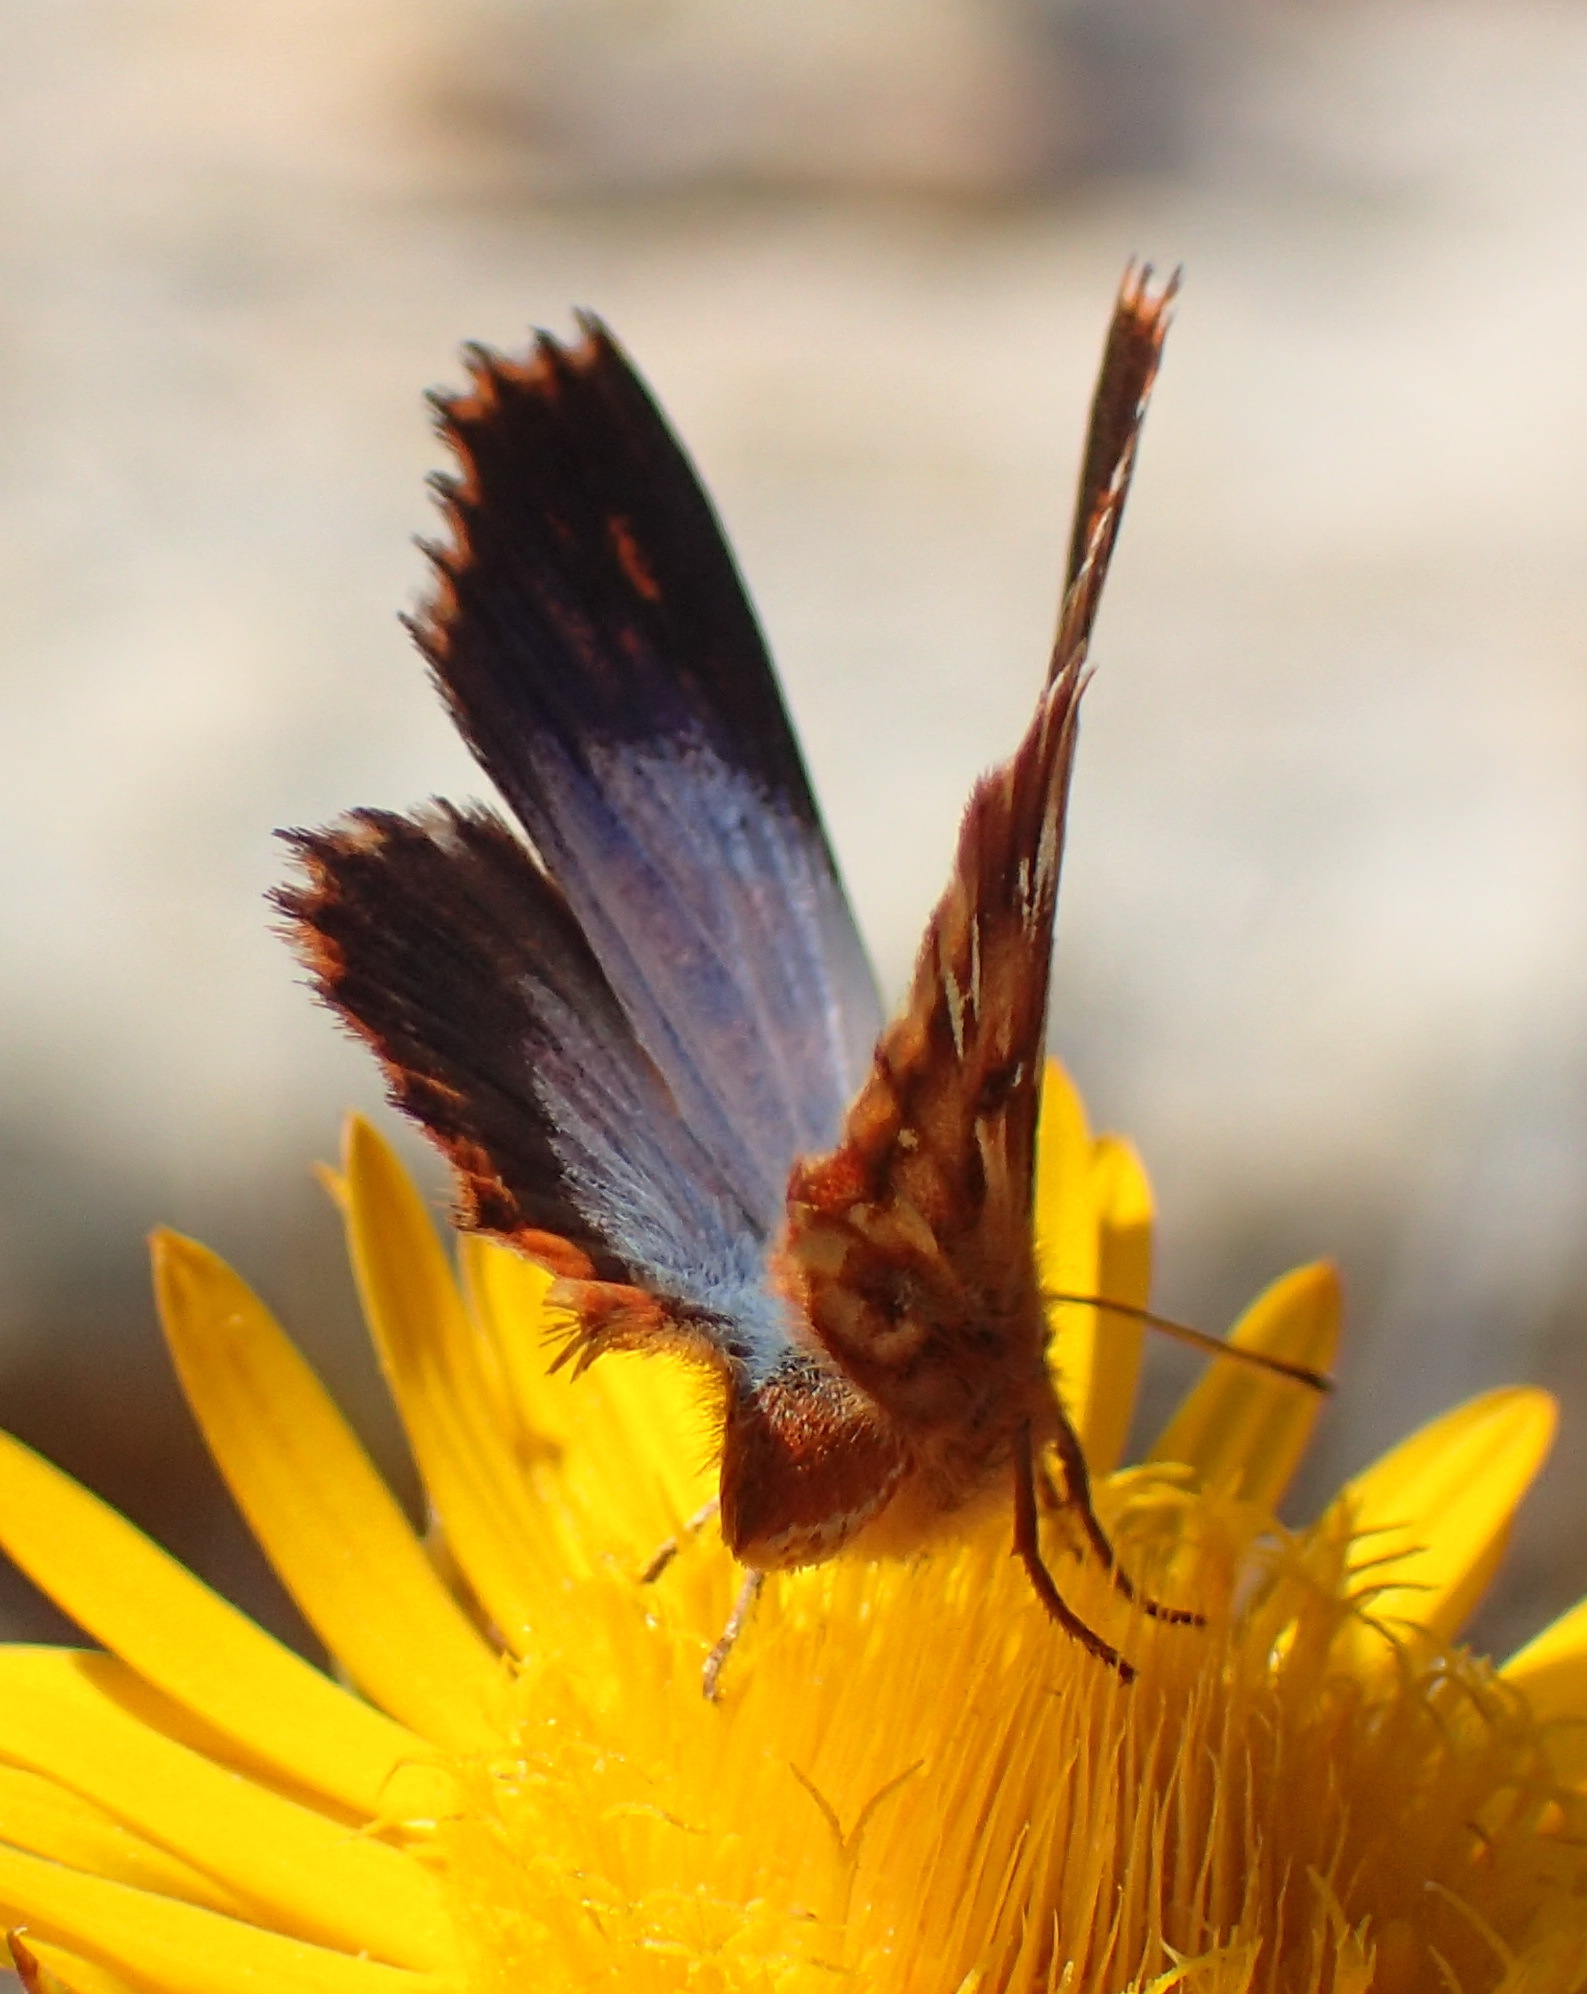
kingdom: Animalia
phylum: Arthropoda
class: Insecta
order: Lepidoptera
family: Lycaenidae
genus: Chrysoritis
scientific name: Chrysoritis
